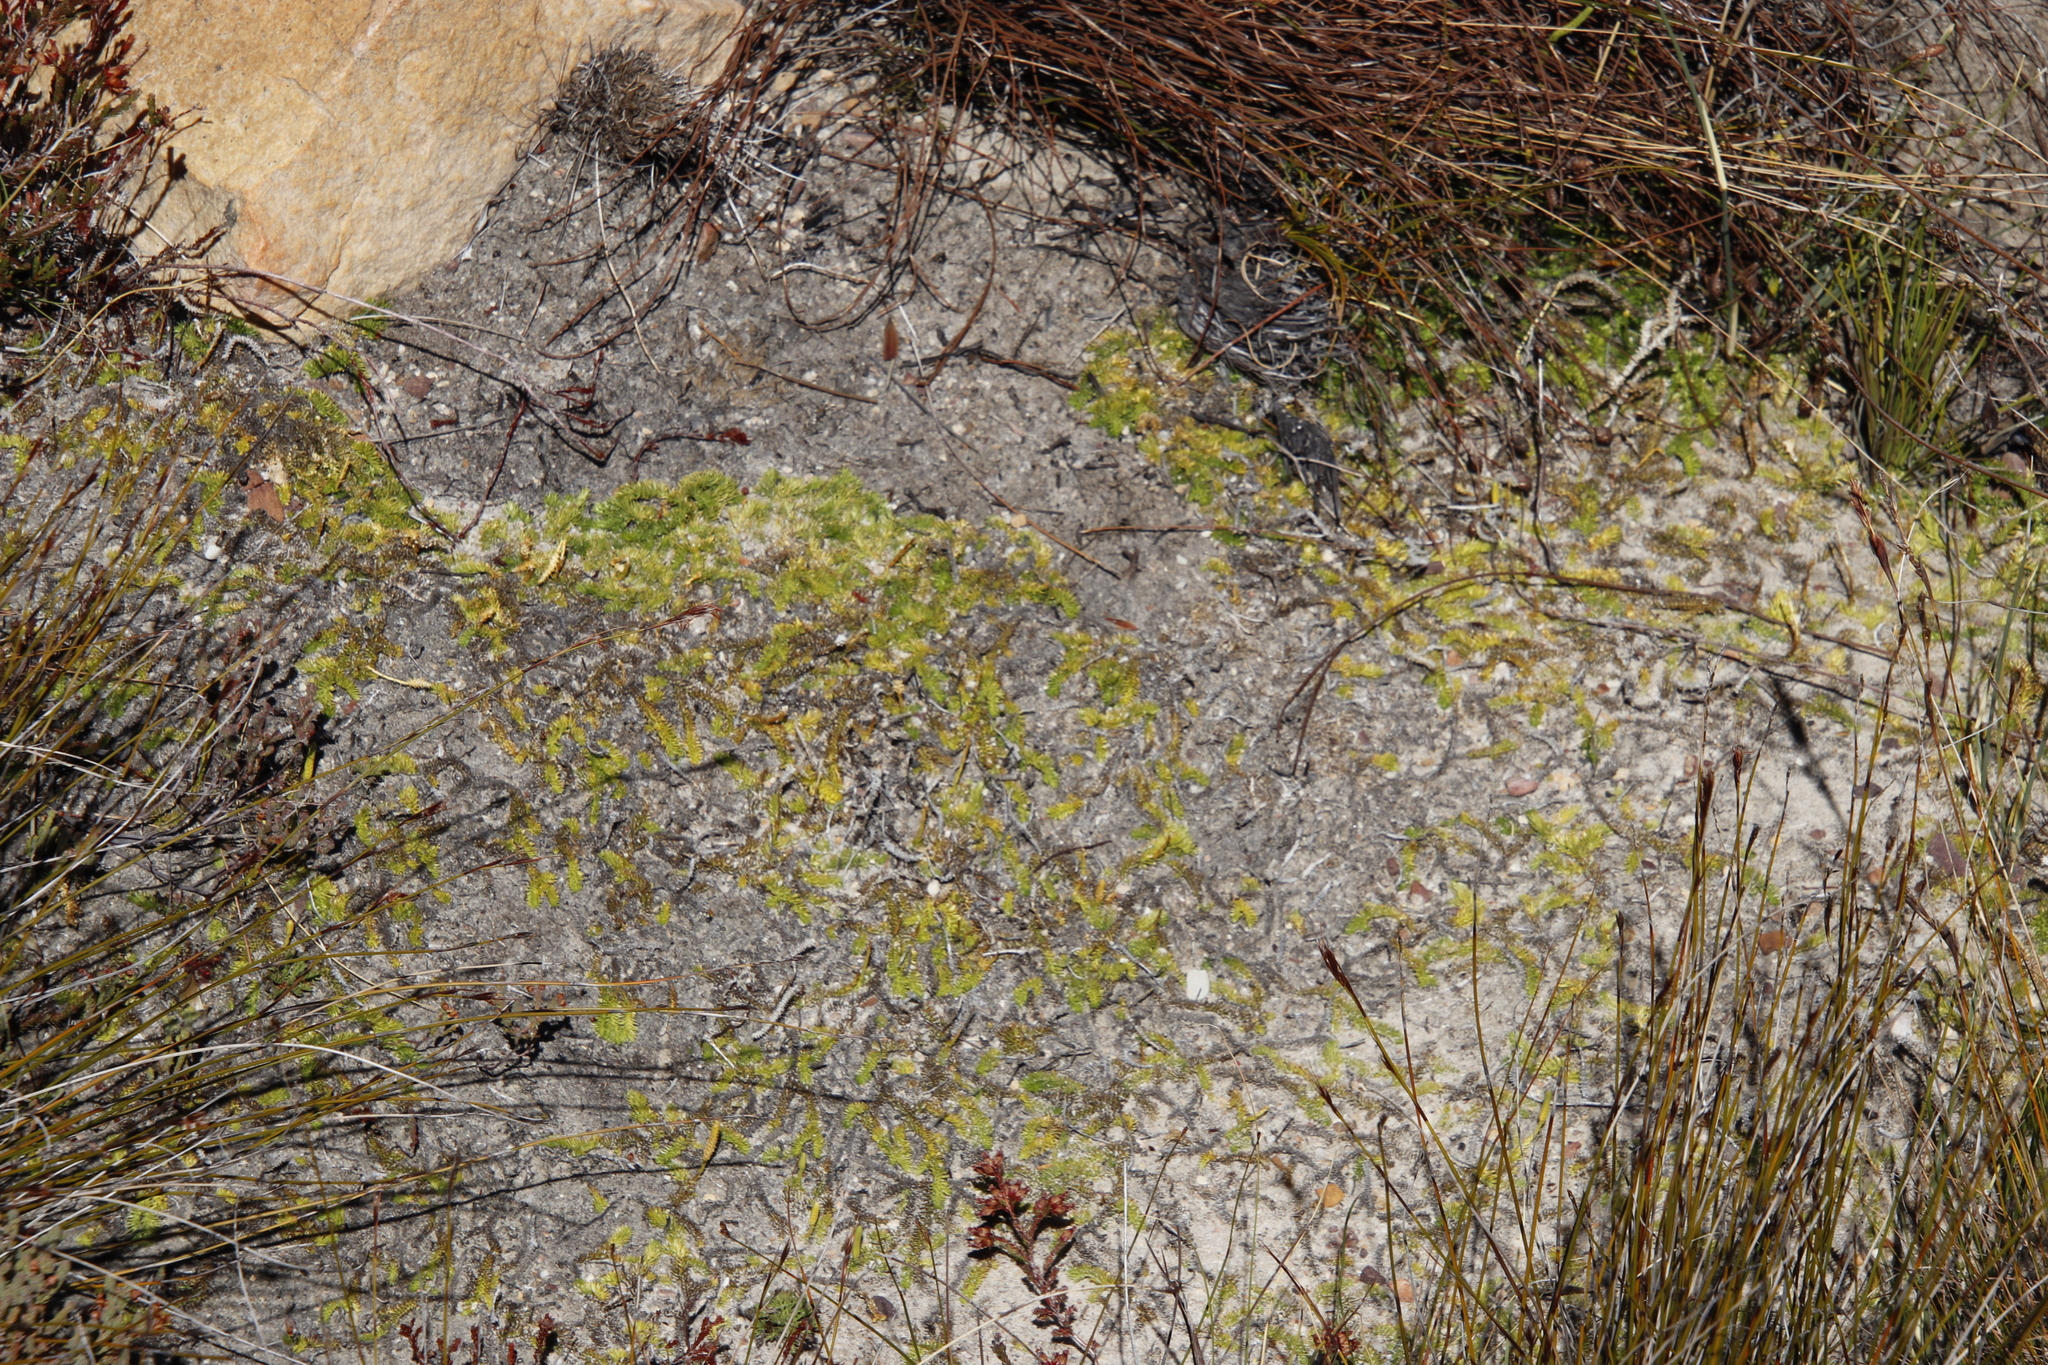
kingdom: Plantae
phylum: Tracheophyta
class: Lycopodiopsida
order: Lycopodiales
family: Lycopodiaceae
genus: Pseudolycopodiella
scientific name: Pseudolycopodiella caroliniana
